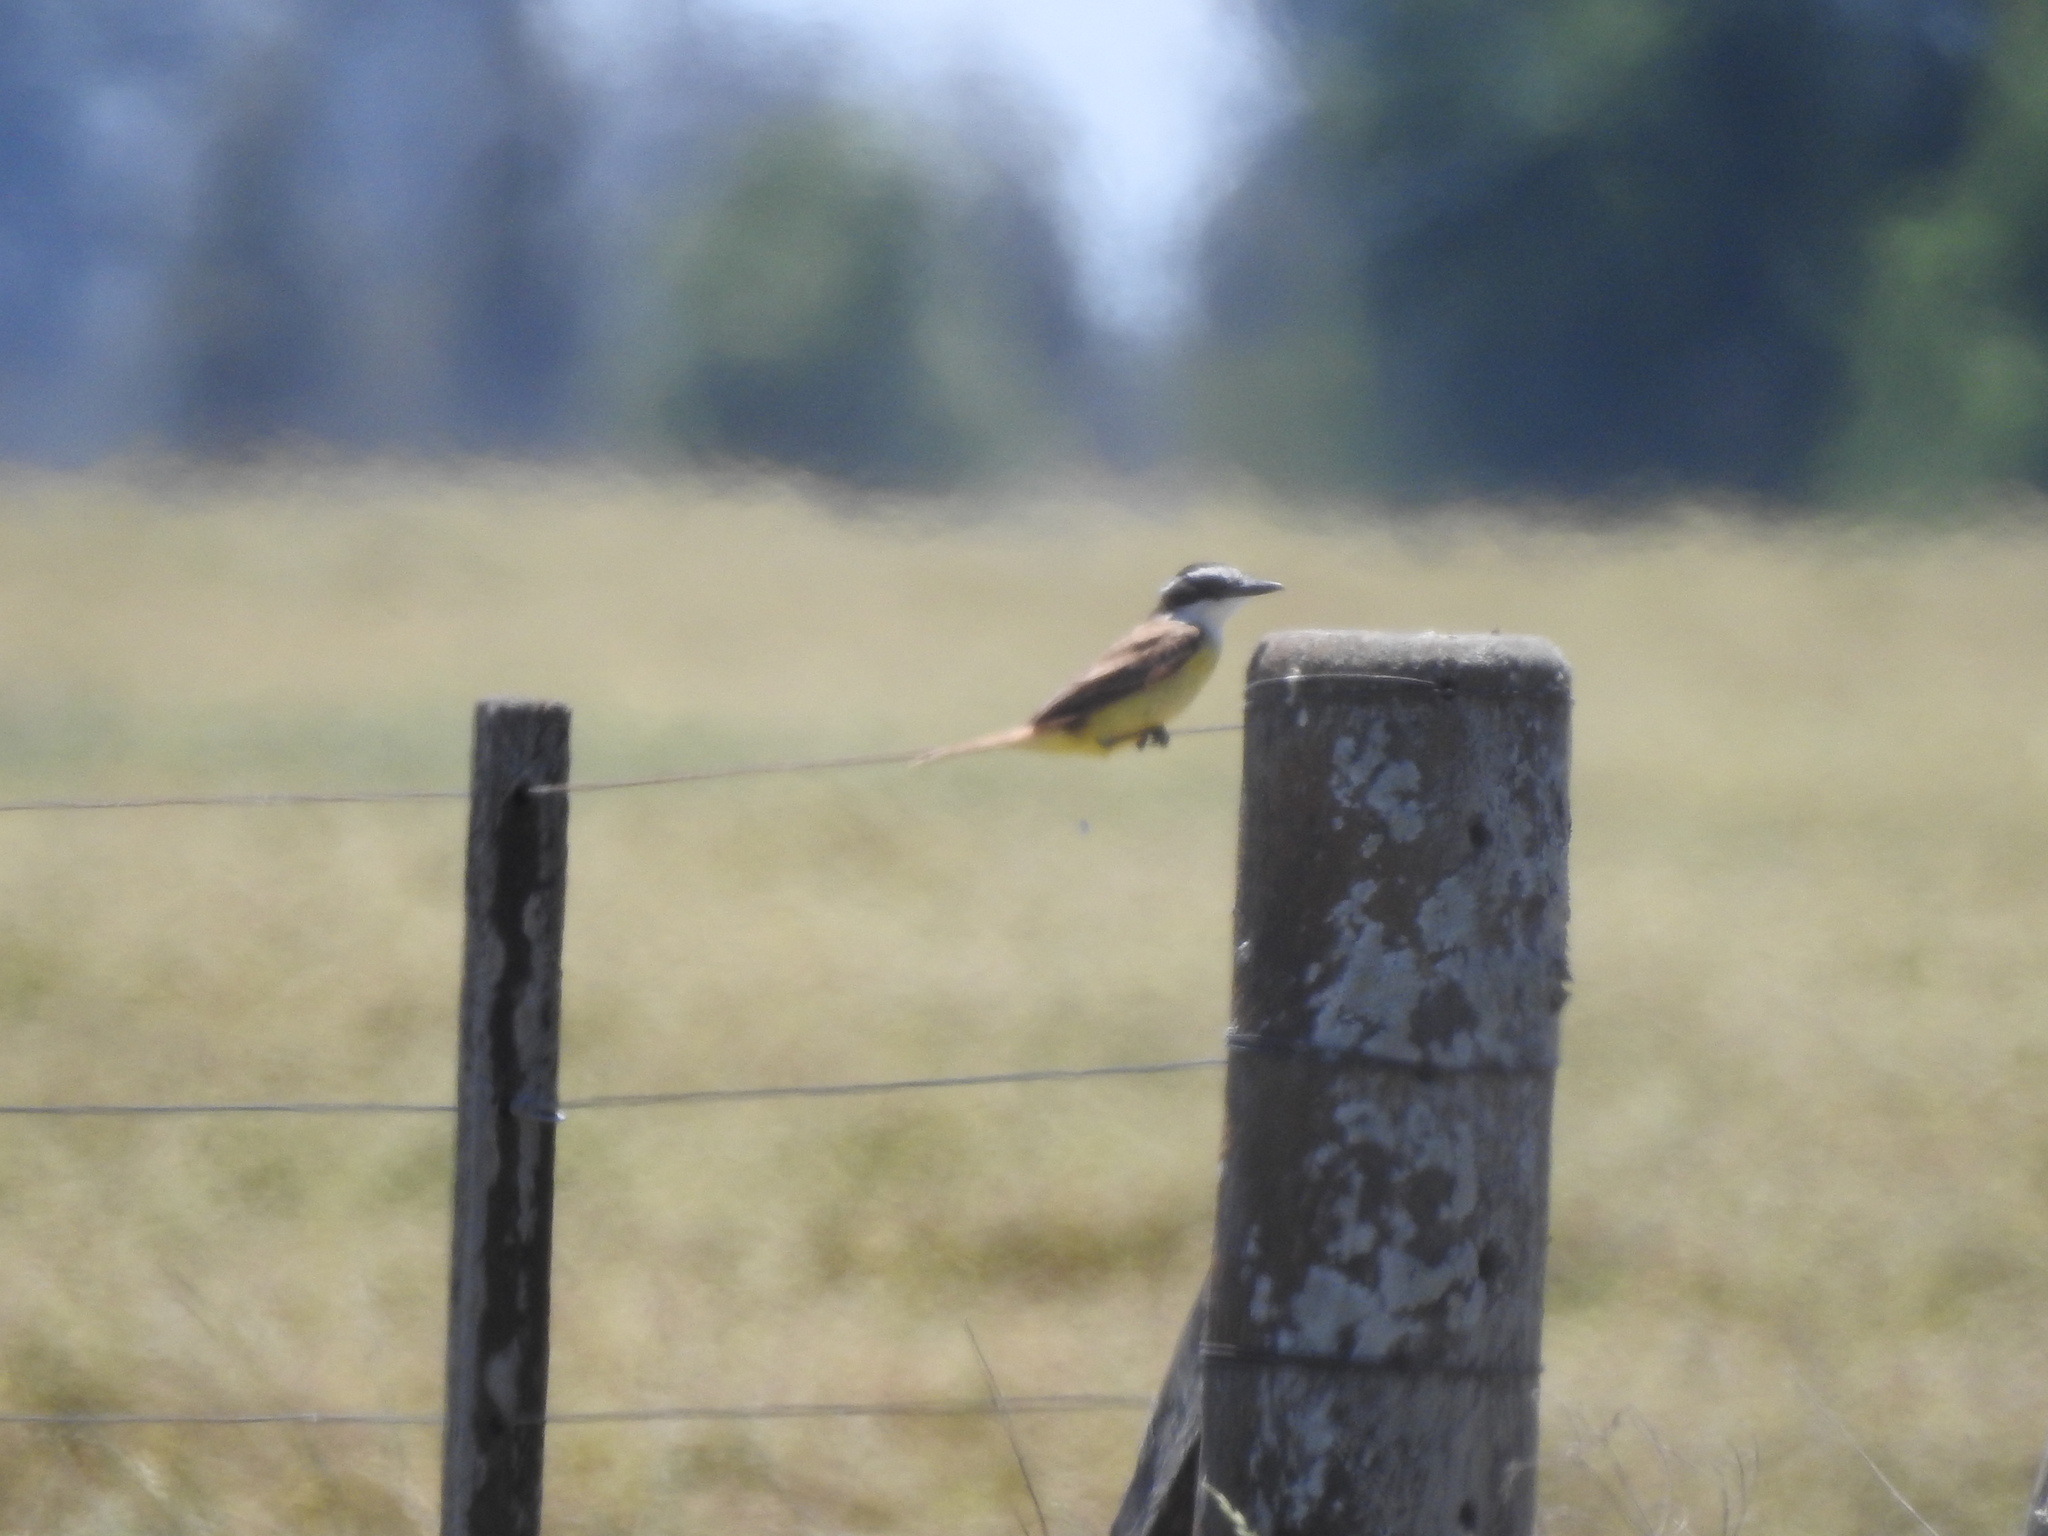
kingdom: Animalia
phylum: Chordata
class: Aves
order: Passeriformes
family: Tyrannidae
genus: Pitangus
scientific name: Pitangus sulphuratus
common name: Great kiskadee
